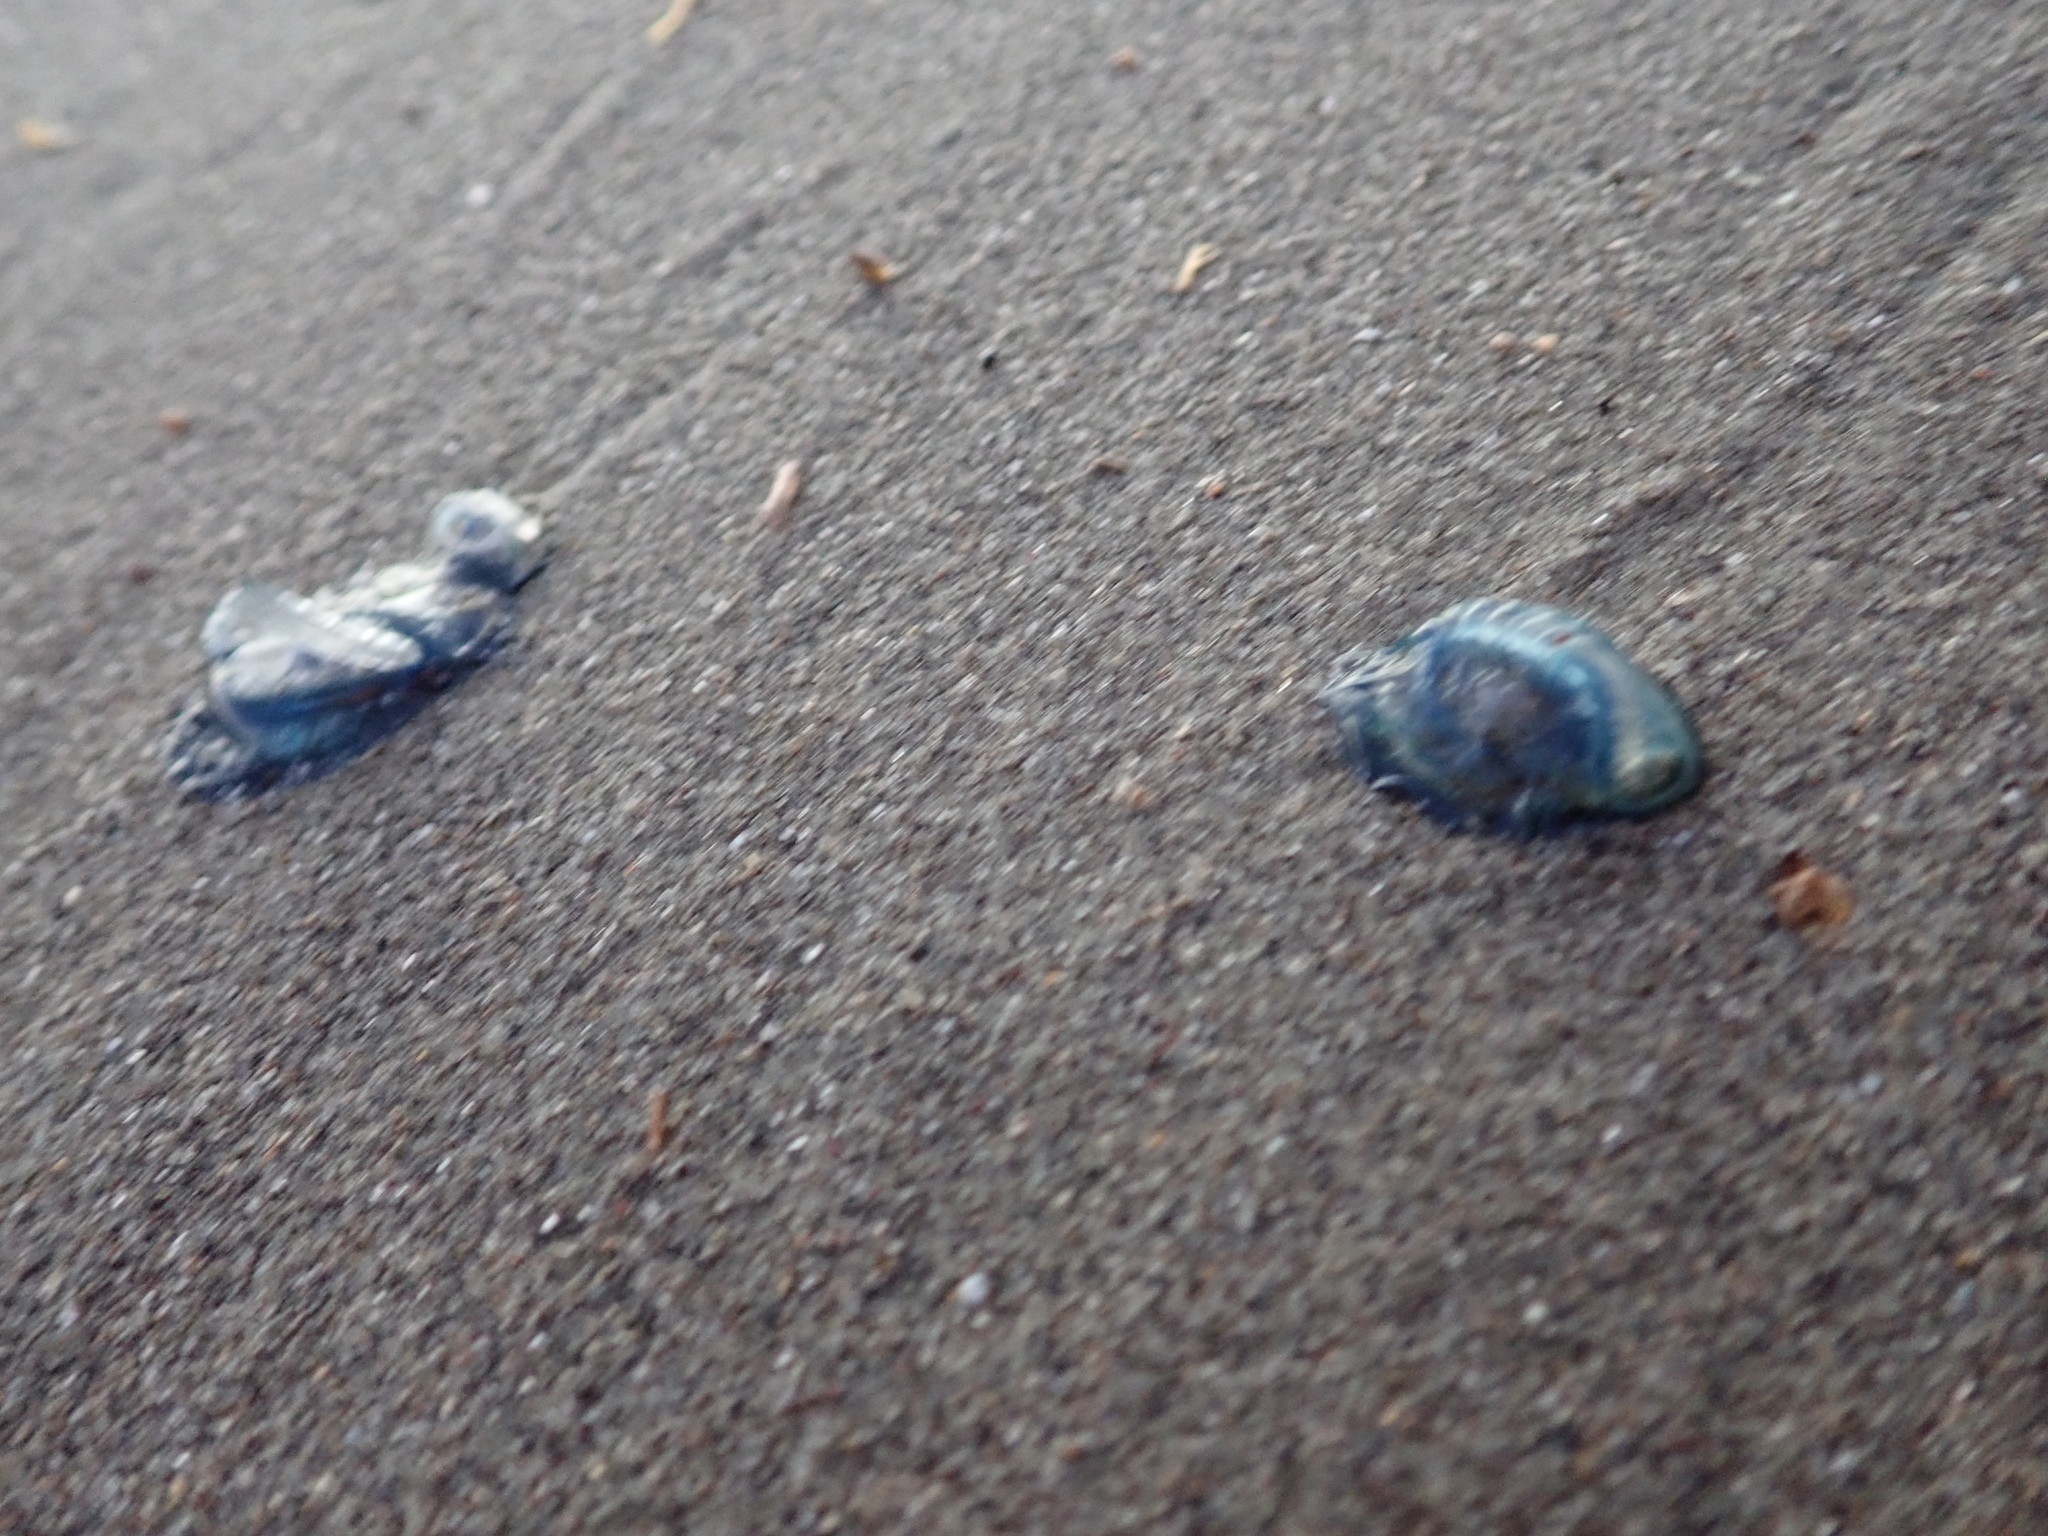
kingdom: Animalia
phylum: Cnidaria
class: Hydrozoa
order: Anthoathecata
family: Porpitidae
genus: Velella
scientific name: Velella velella
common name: By-the-wind-sailor
